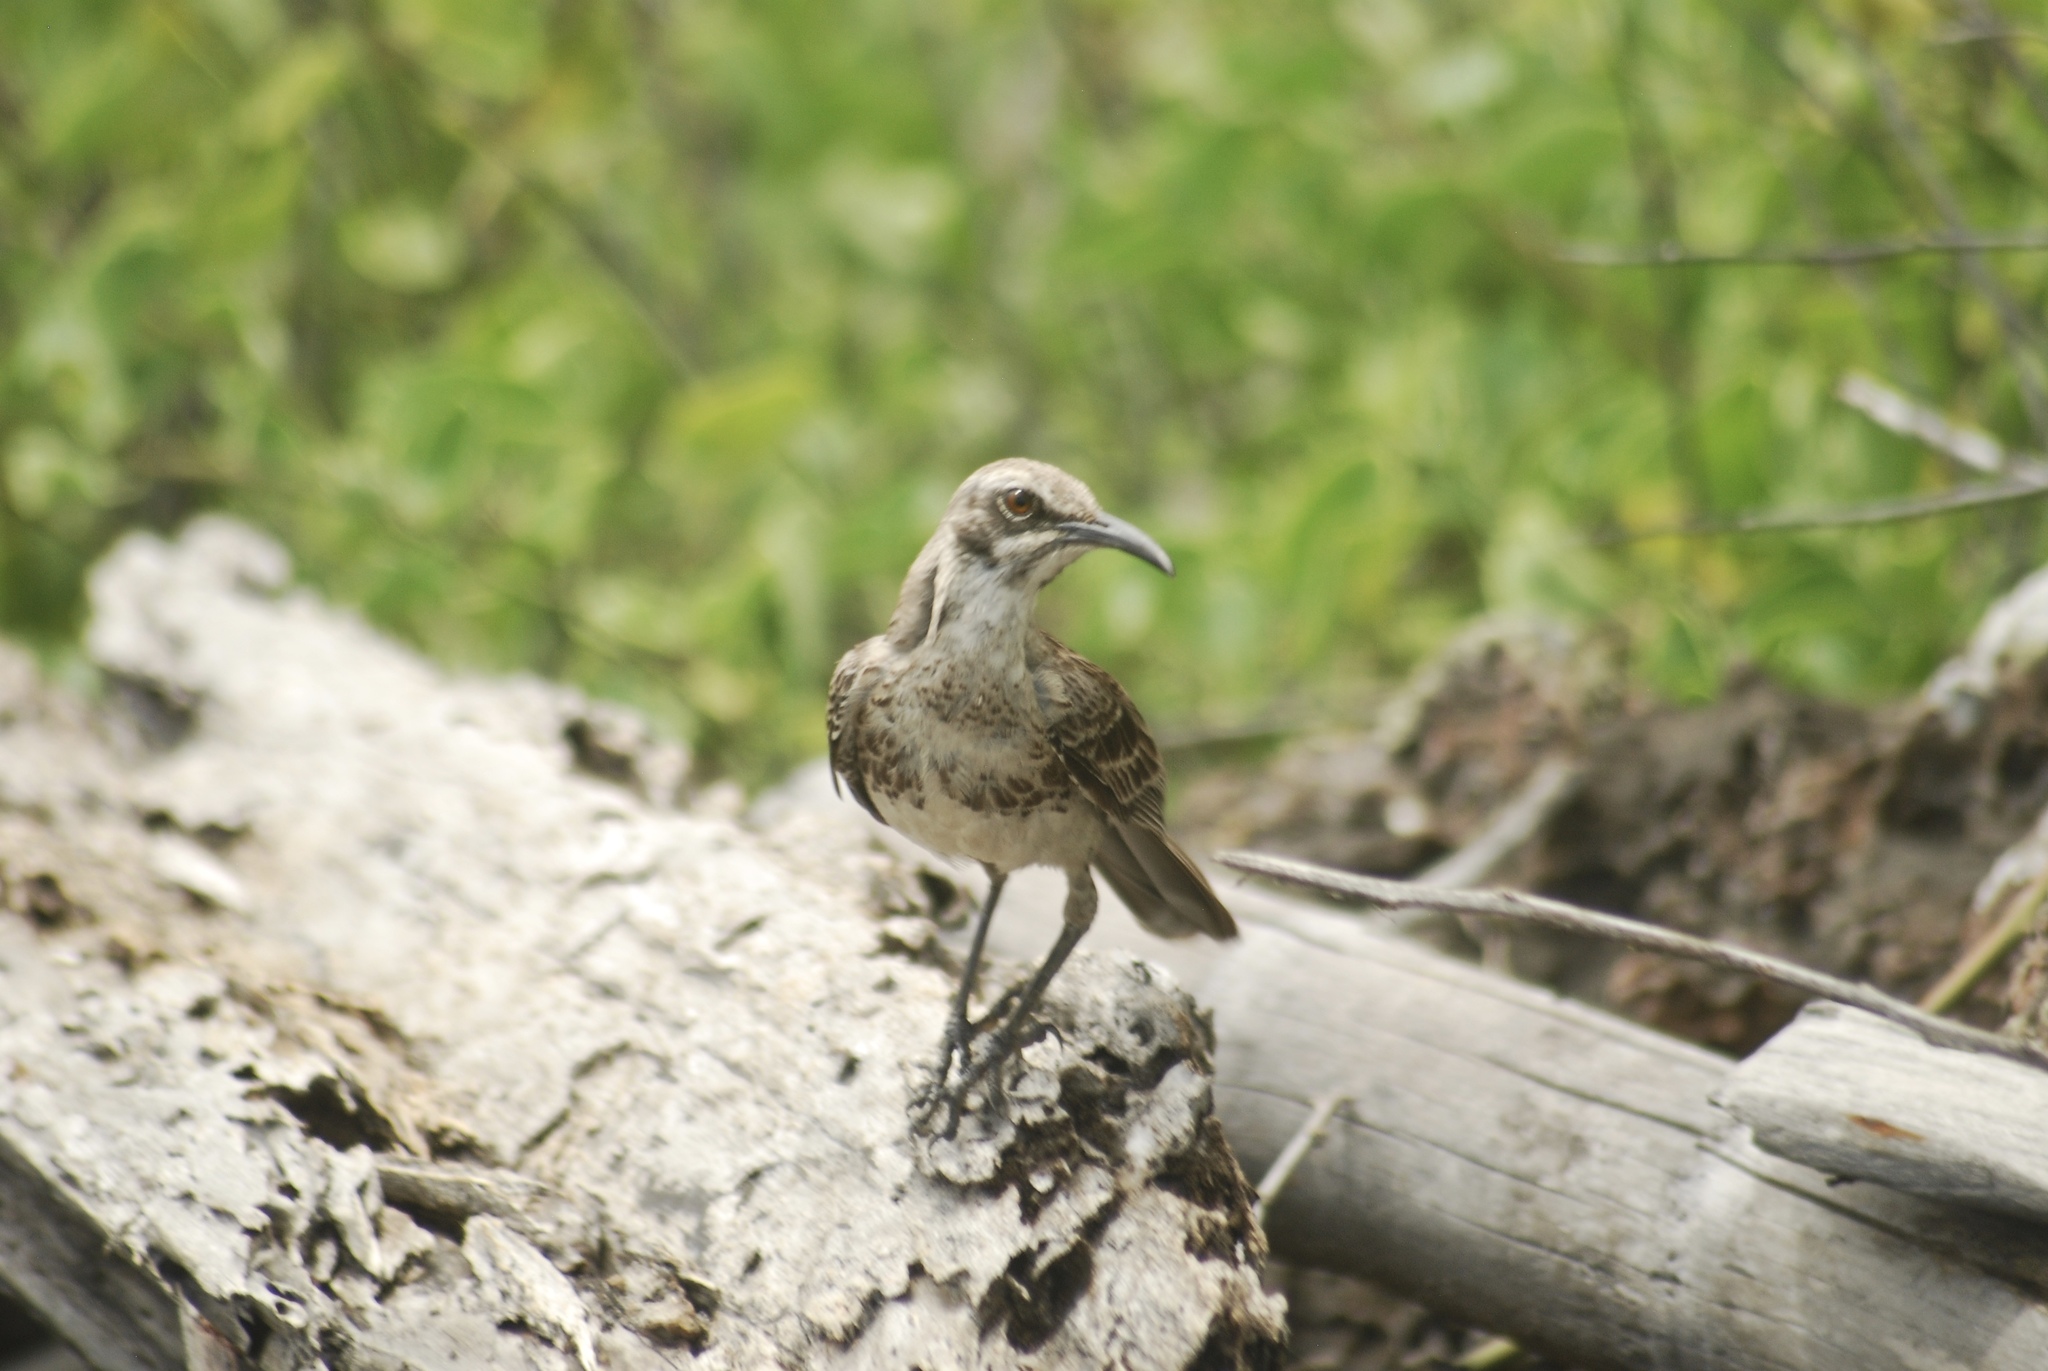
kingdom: Animalia
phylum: Chordata
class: Aves
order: Passeriformes
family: Mimidae
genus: Mimus
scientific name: Mimus macdonaldi
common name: Espanola mockingbird
